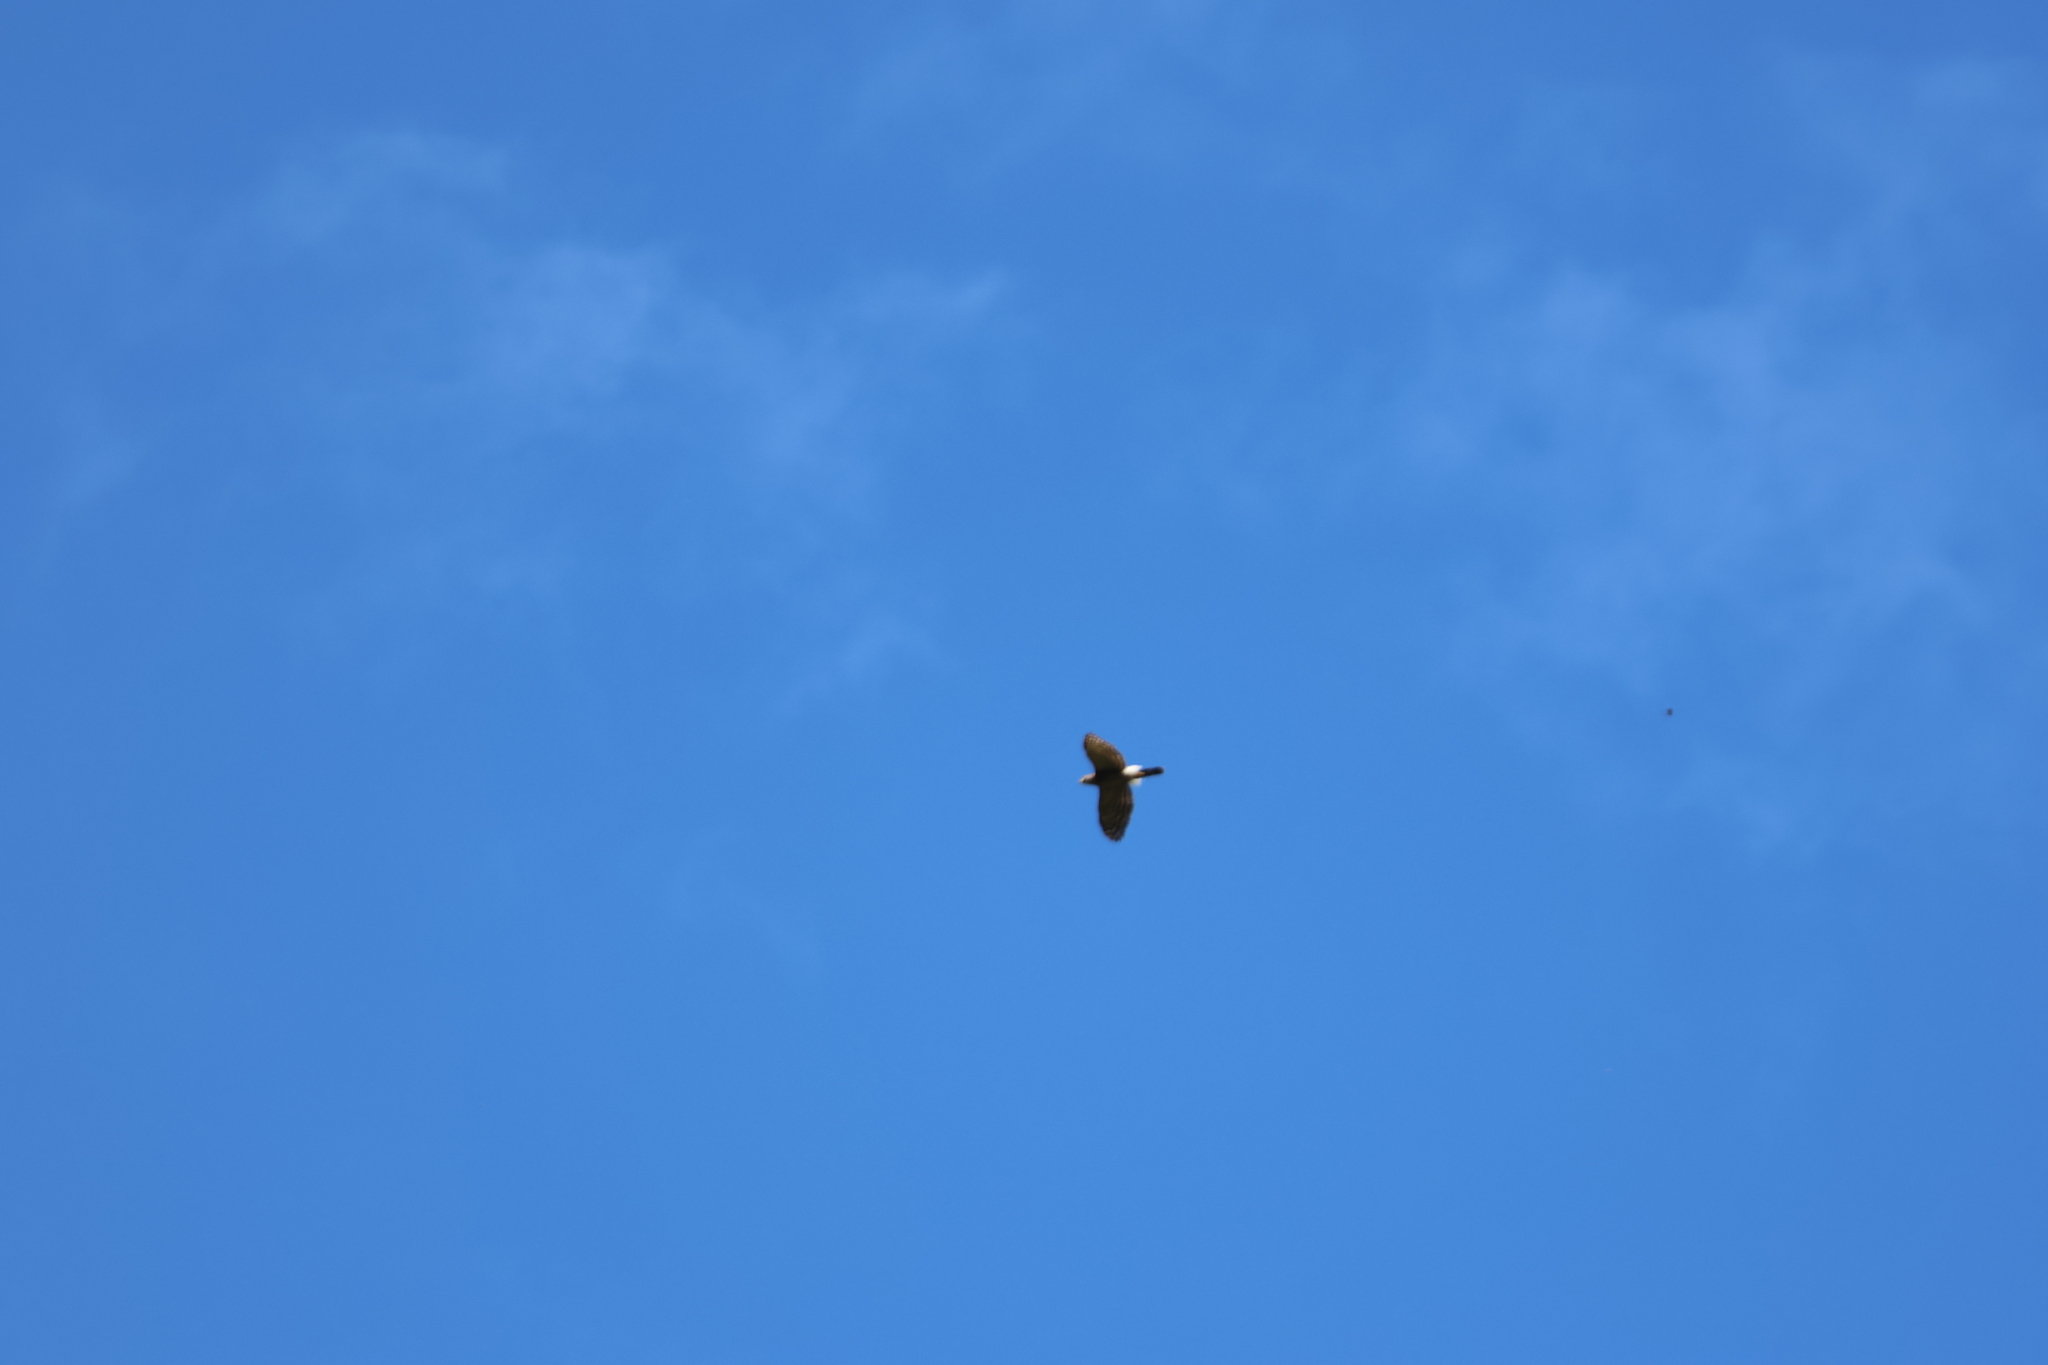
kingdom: Animalia
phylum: Chordata
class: Aves
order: Accipitriformes
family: Accipitridae
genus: Accipiter
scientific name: Accipiter trivirgatus
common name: Crested goshawk
